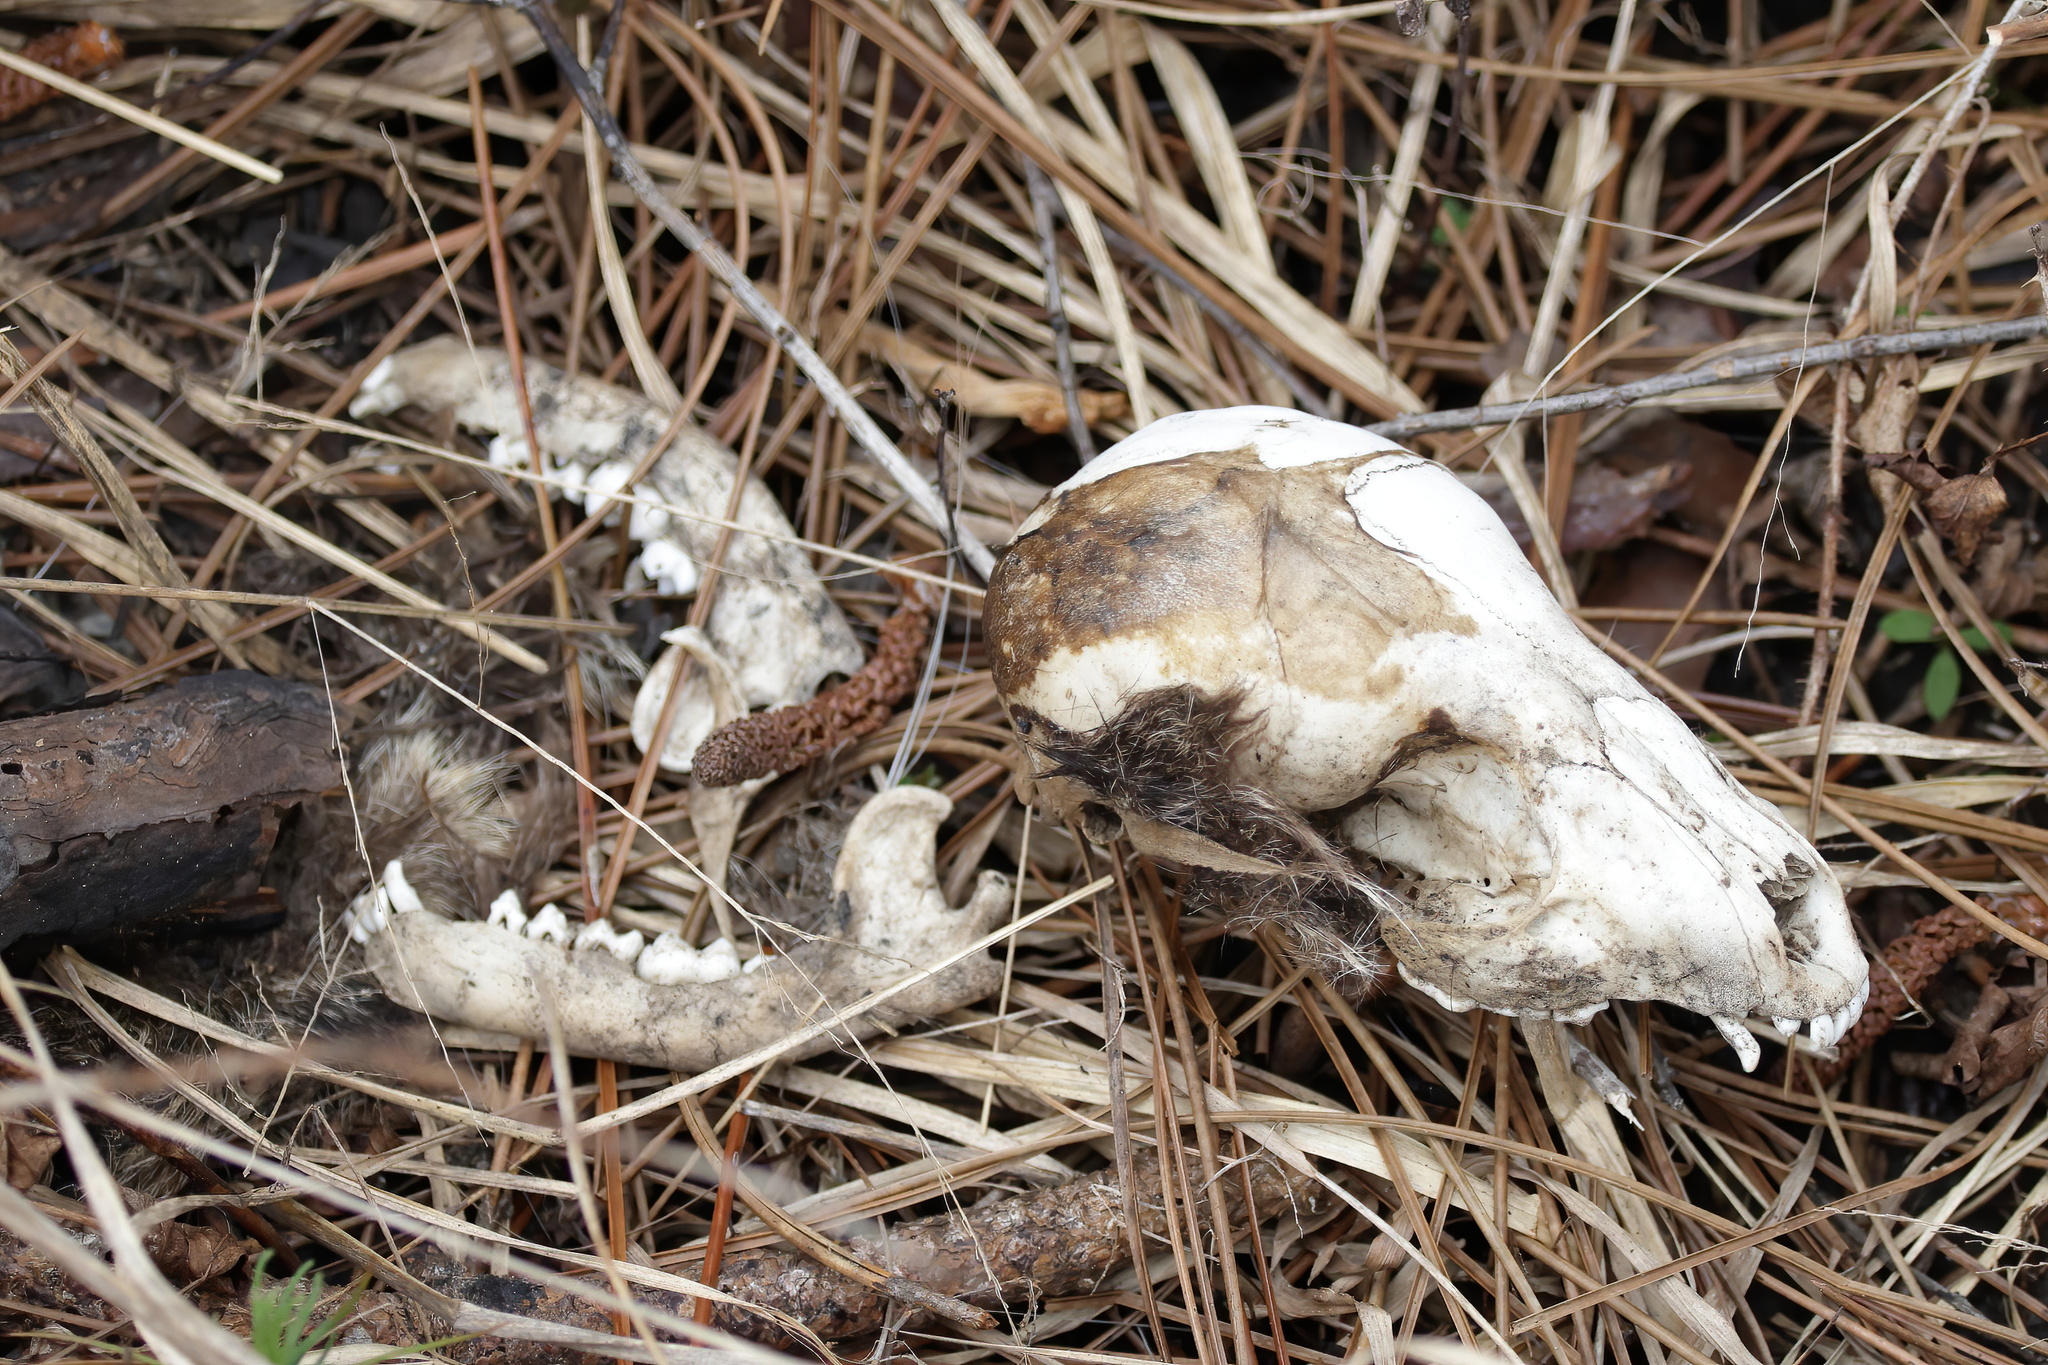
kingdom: Animalia
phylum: Chordata
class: Mammalia
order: Carnivora
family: Procyonidae
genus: Procyon
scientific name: Procyon lotor
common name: Raccoon
